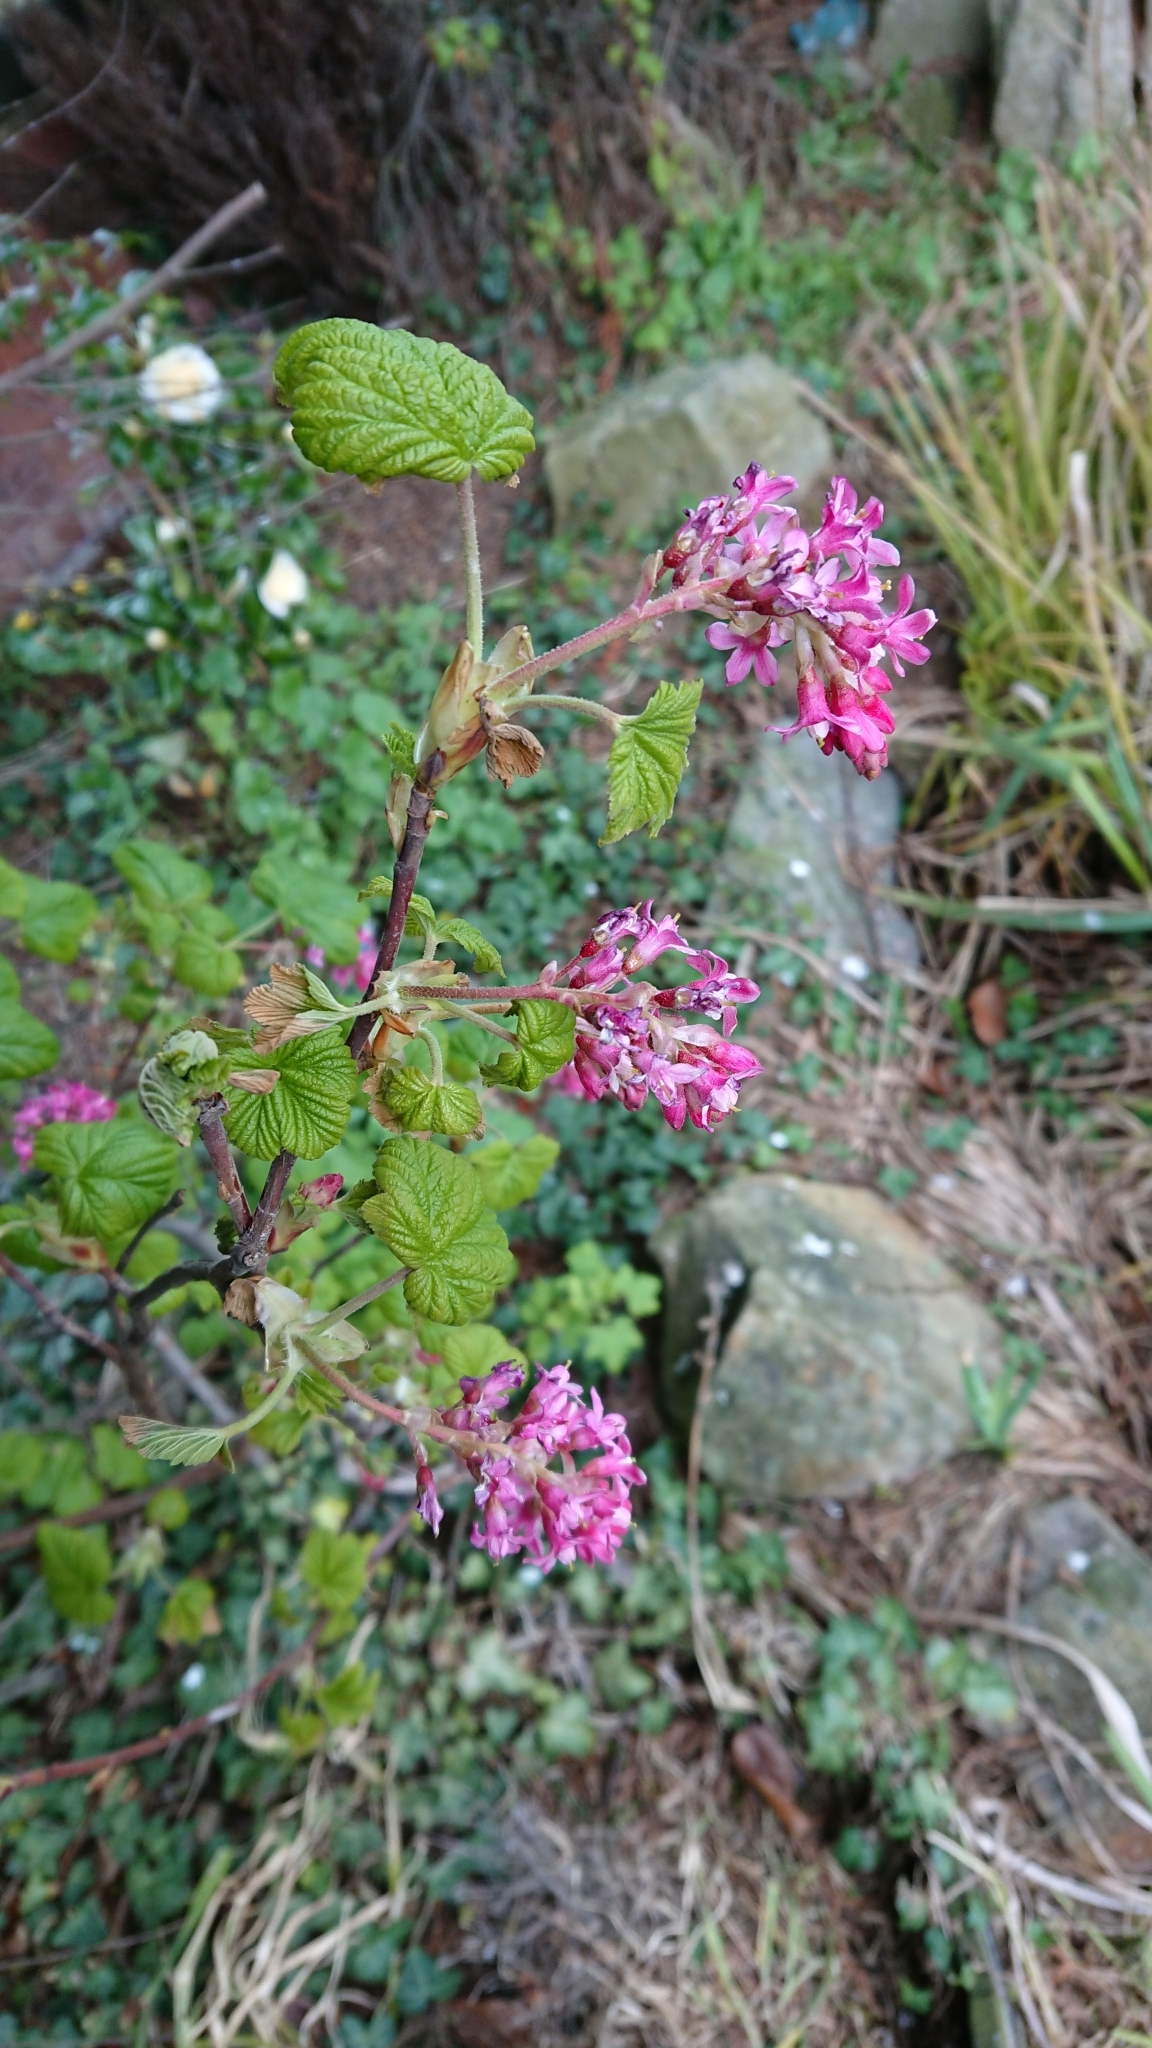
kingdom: Plantae
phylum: Tracheophyta
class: Magnoliopsida
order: Saxifragales
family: Grossulariaceae
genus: Ribes
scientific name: Ribes sanguineum
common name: Flowering currant
